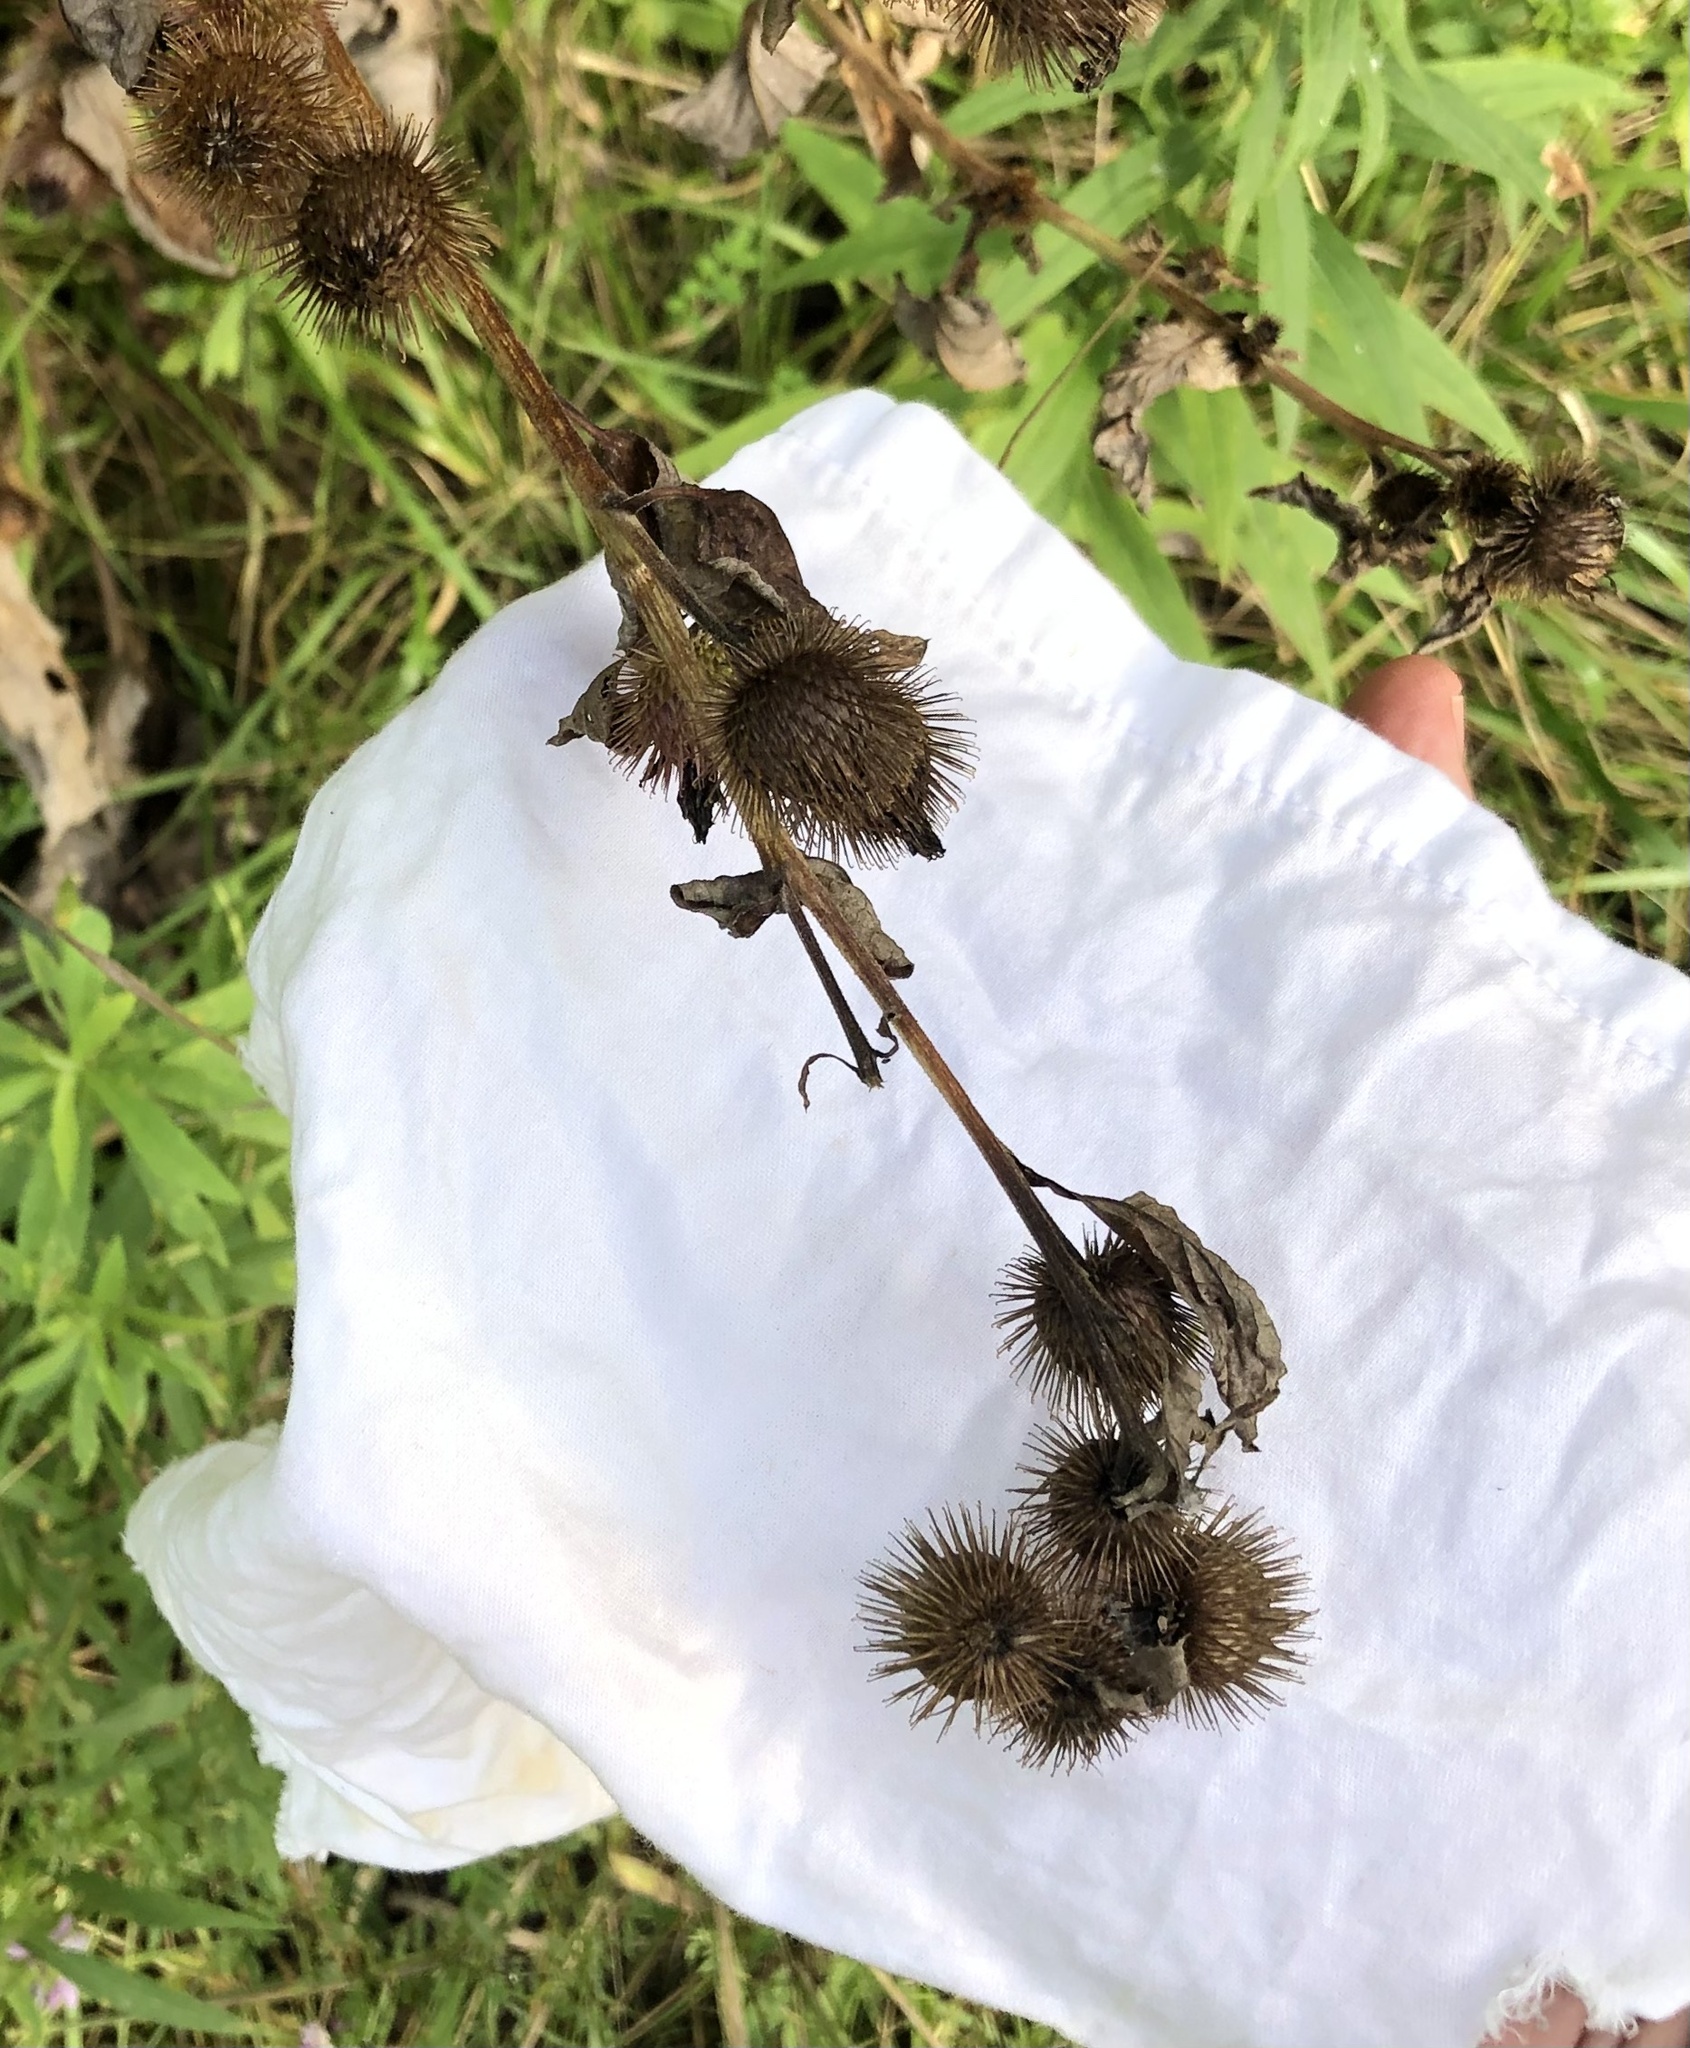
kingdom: Plantae
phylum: Tracheophyta
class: Magnoliopsida
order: Asterales
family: Asteraceae
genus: Arctium
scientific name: Arctium minus
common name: Lesser burdock
